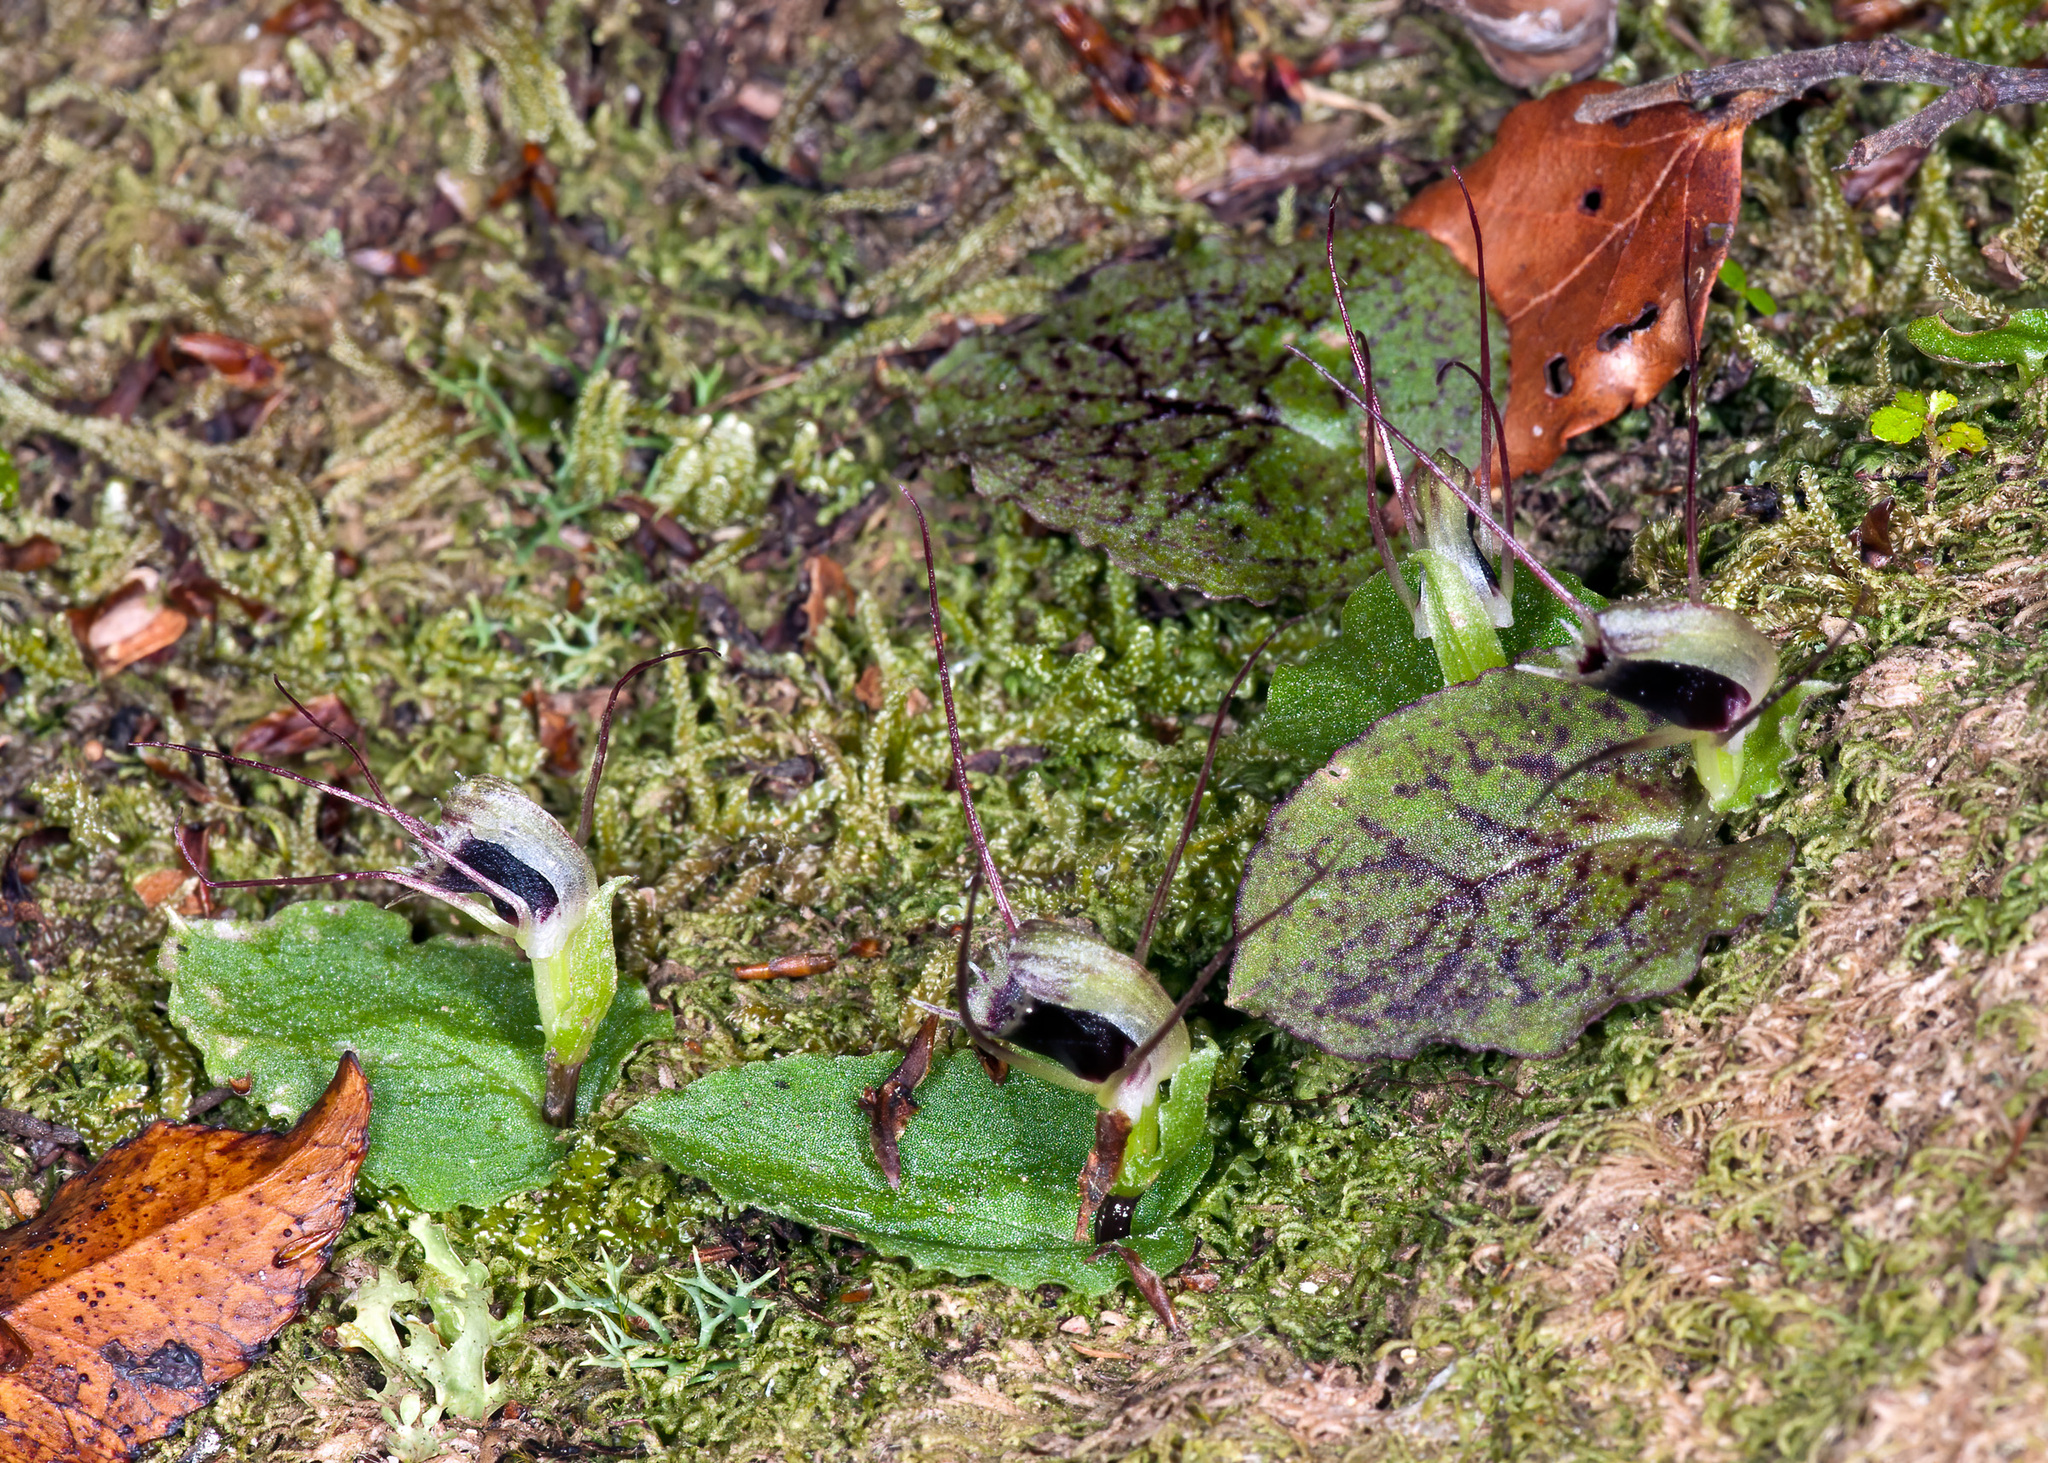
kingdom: Plantae
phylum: Tracheophyta
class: Liliopsida
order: Asparagales
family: Orchidaceae
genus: Corybas
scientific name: Corybas oblongus
